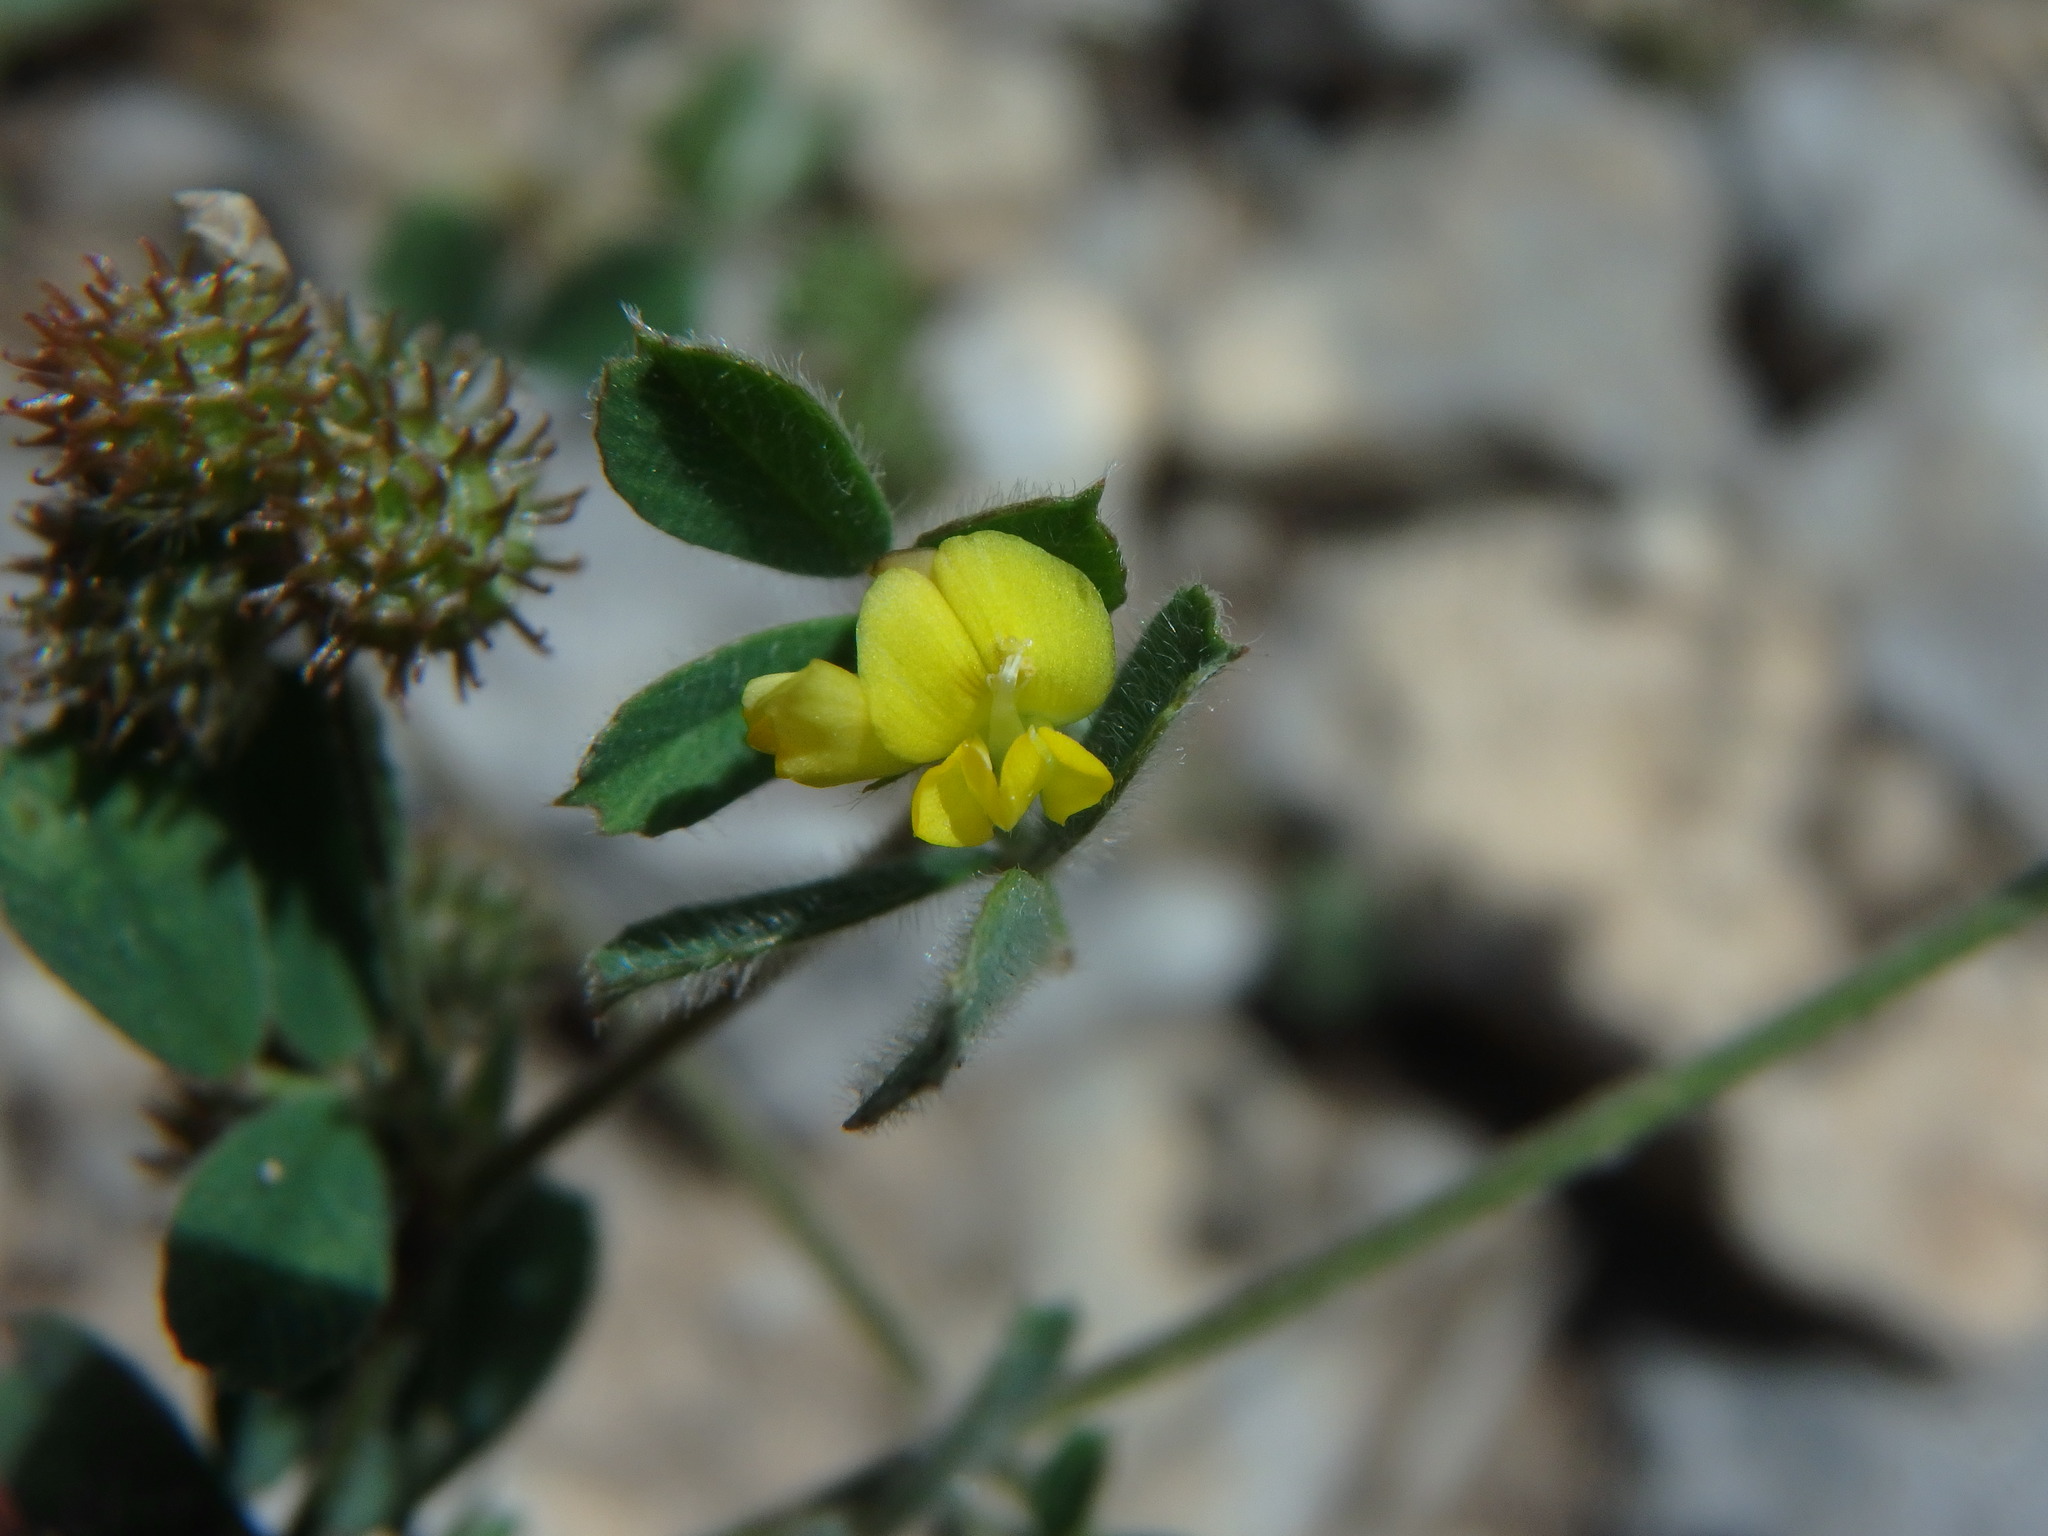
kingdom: Plantae
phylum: Tracheophyta
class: Magnoliopsida
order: Fabales
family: Fabaceae
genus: Medicago
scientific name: Medicago minima
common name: Little bur-clover
